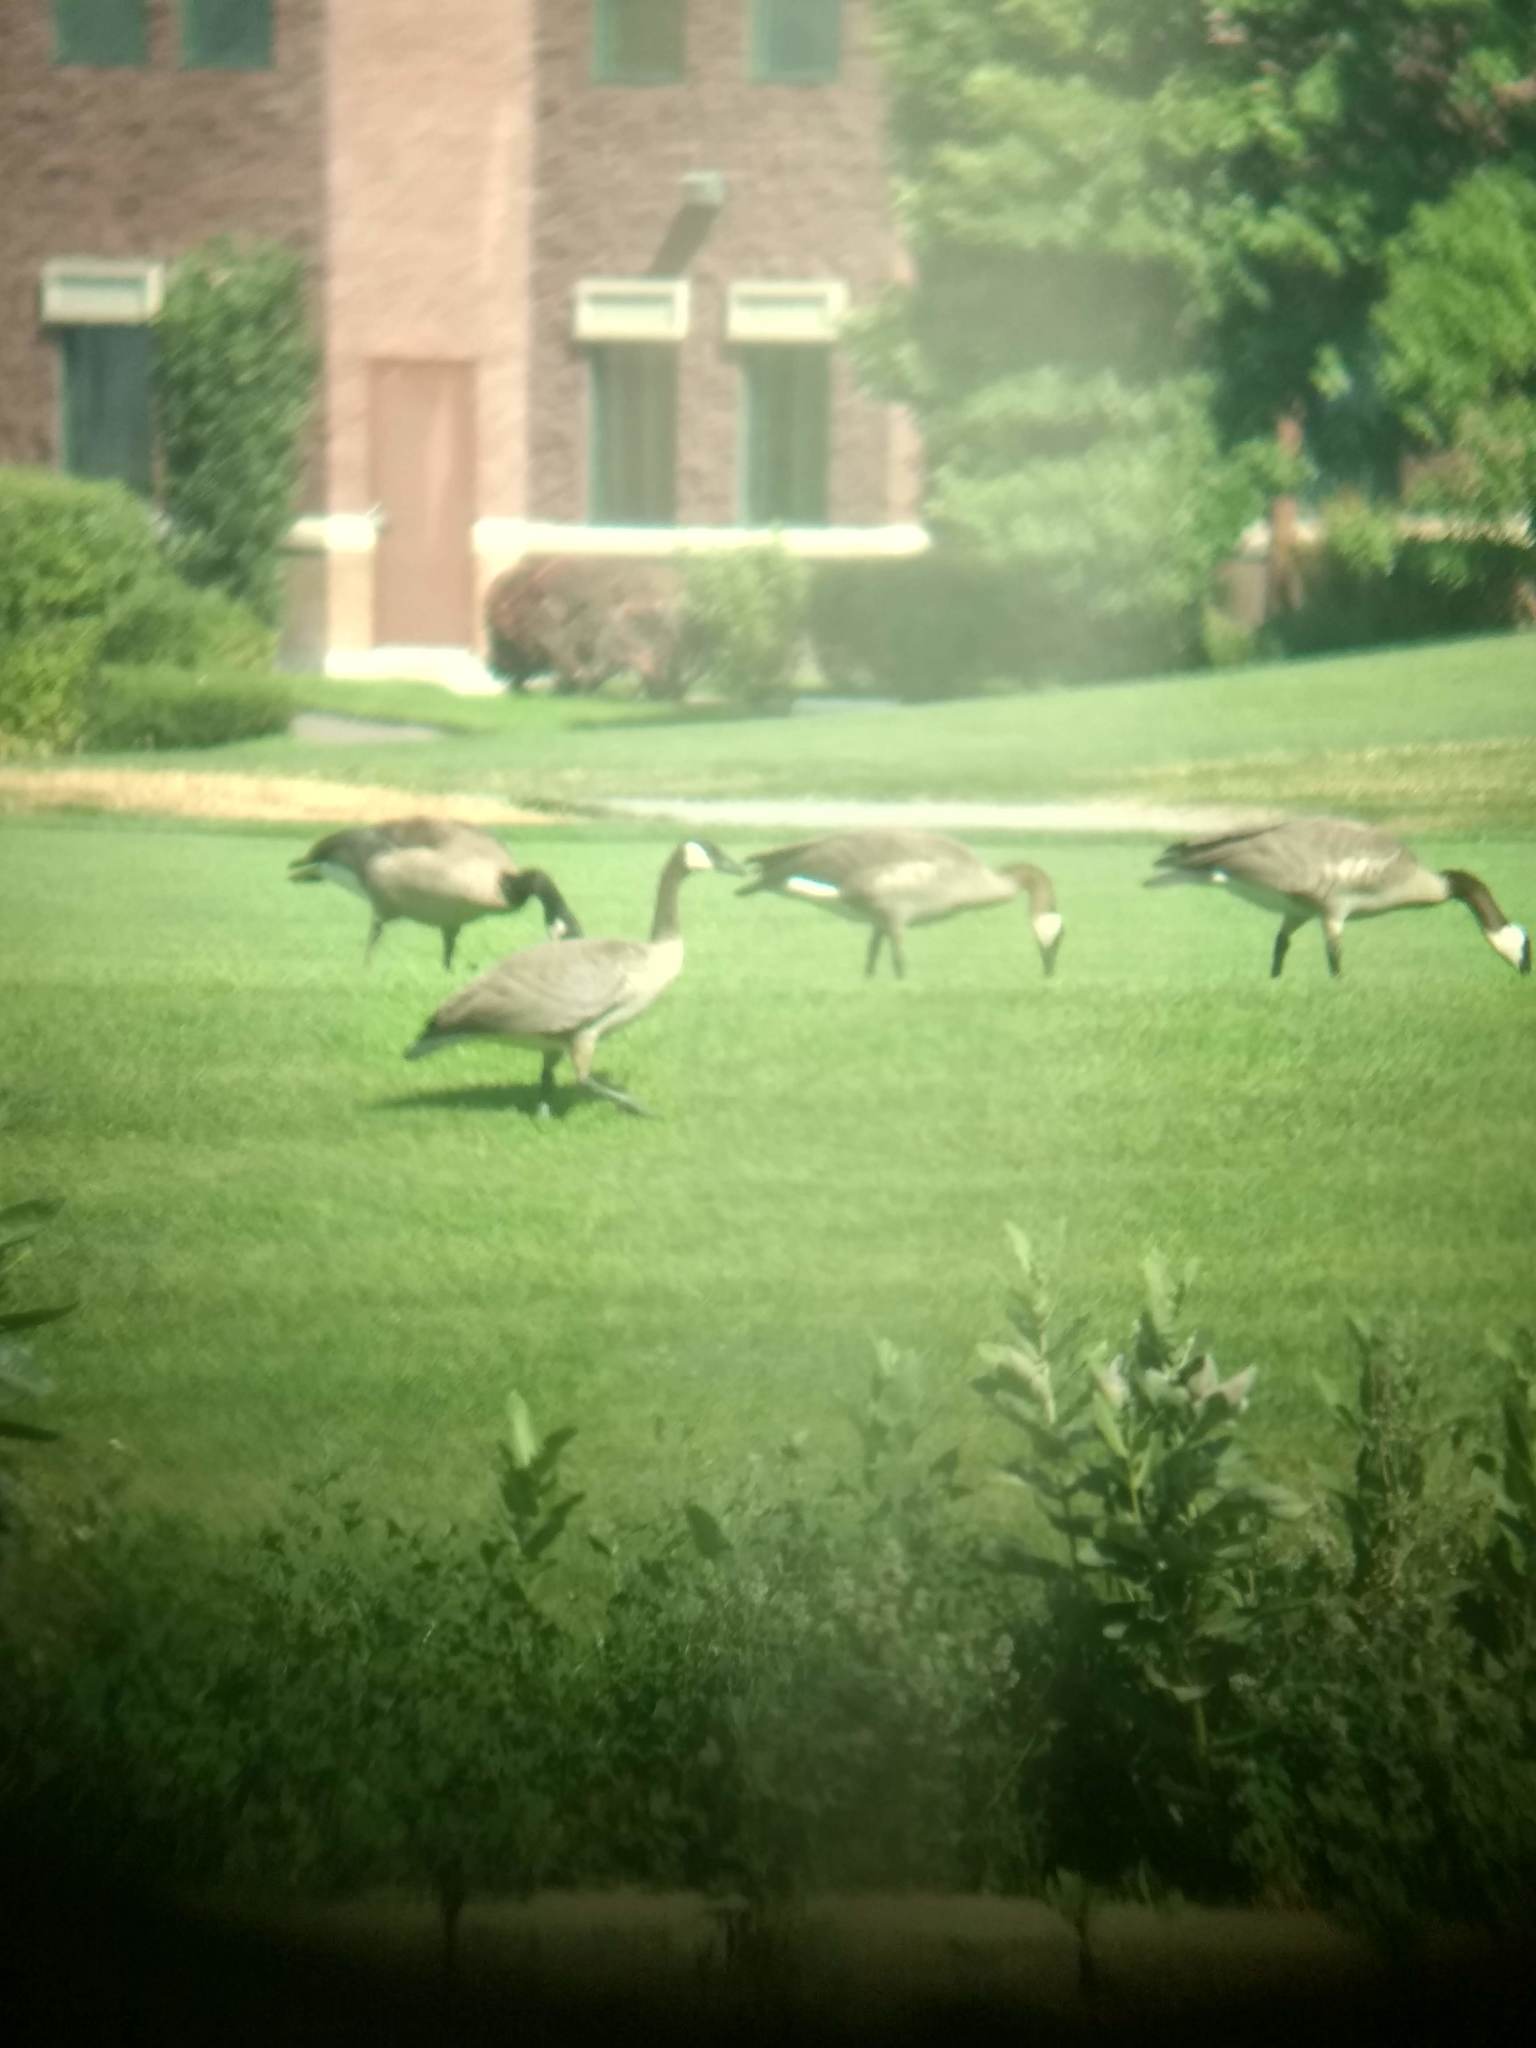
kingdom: Animalia
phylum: Chordata
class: Aves
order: Anseriformes
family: Anatidae
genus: Branta
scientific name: Branta canadensis
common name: Canada goose
